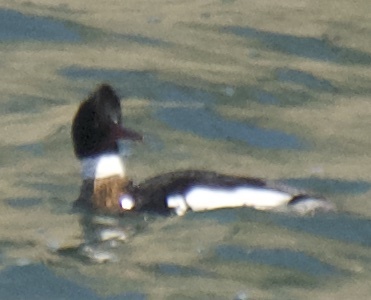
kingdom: Animalia
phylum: Chordata
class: Aves
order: Anseriformes
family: Anatidae
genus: Mergus
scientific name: Mergus serrator
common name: Red-breasted merganser
